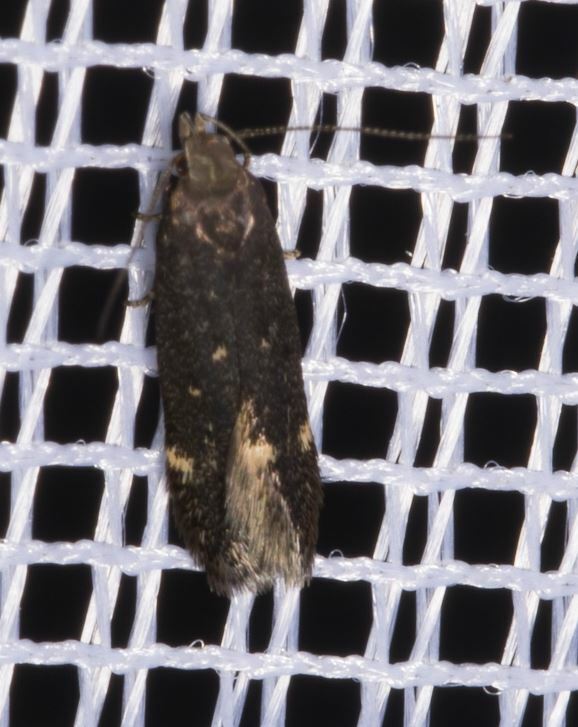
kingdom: Animalia
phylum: Arthropoda
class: Insecta
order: Lepidoptera
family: Gelechiidae
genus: Aproaerema
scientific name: Aproaerema anthyllidella
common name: Vetch sober
